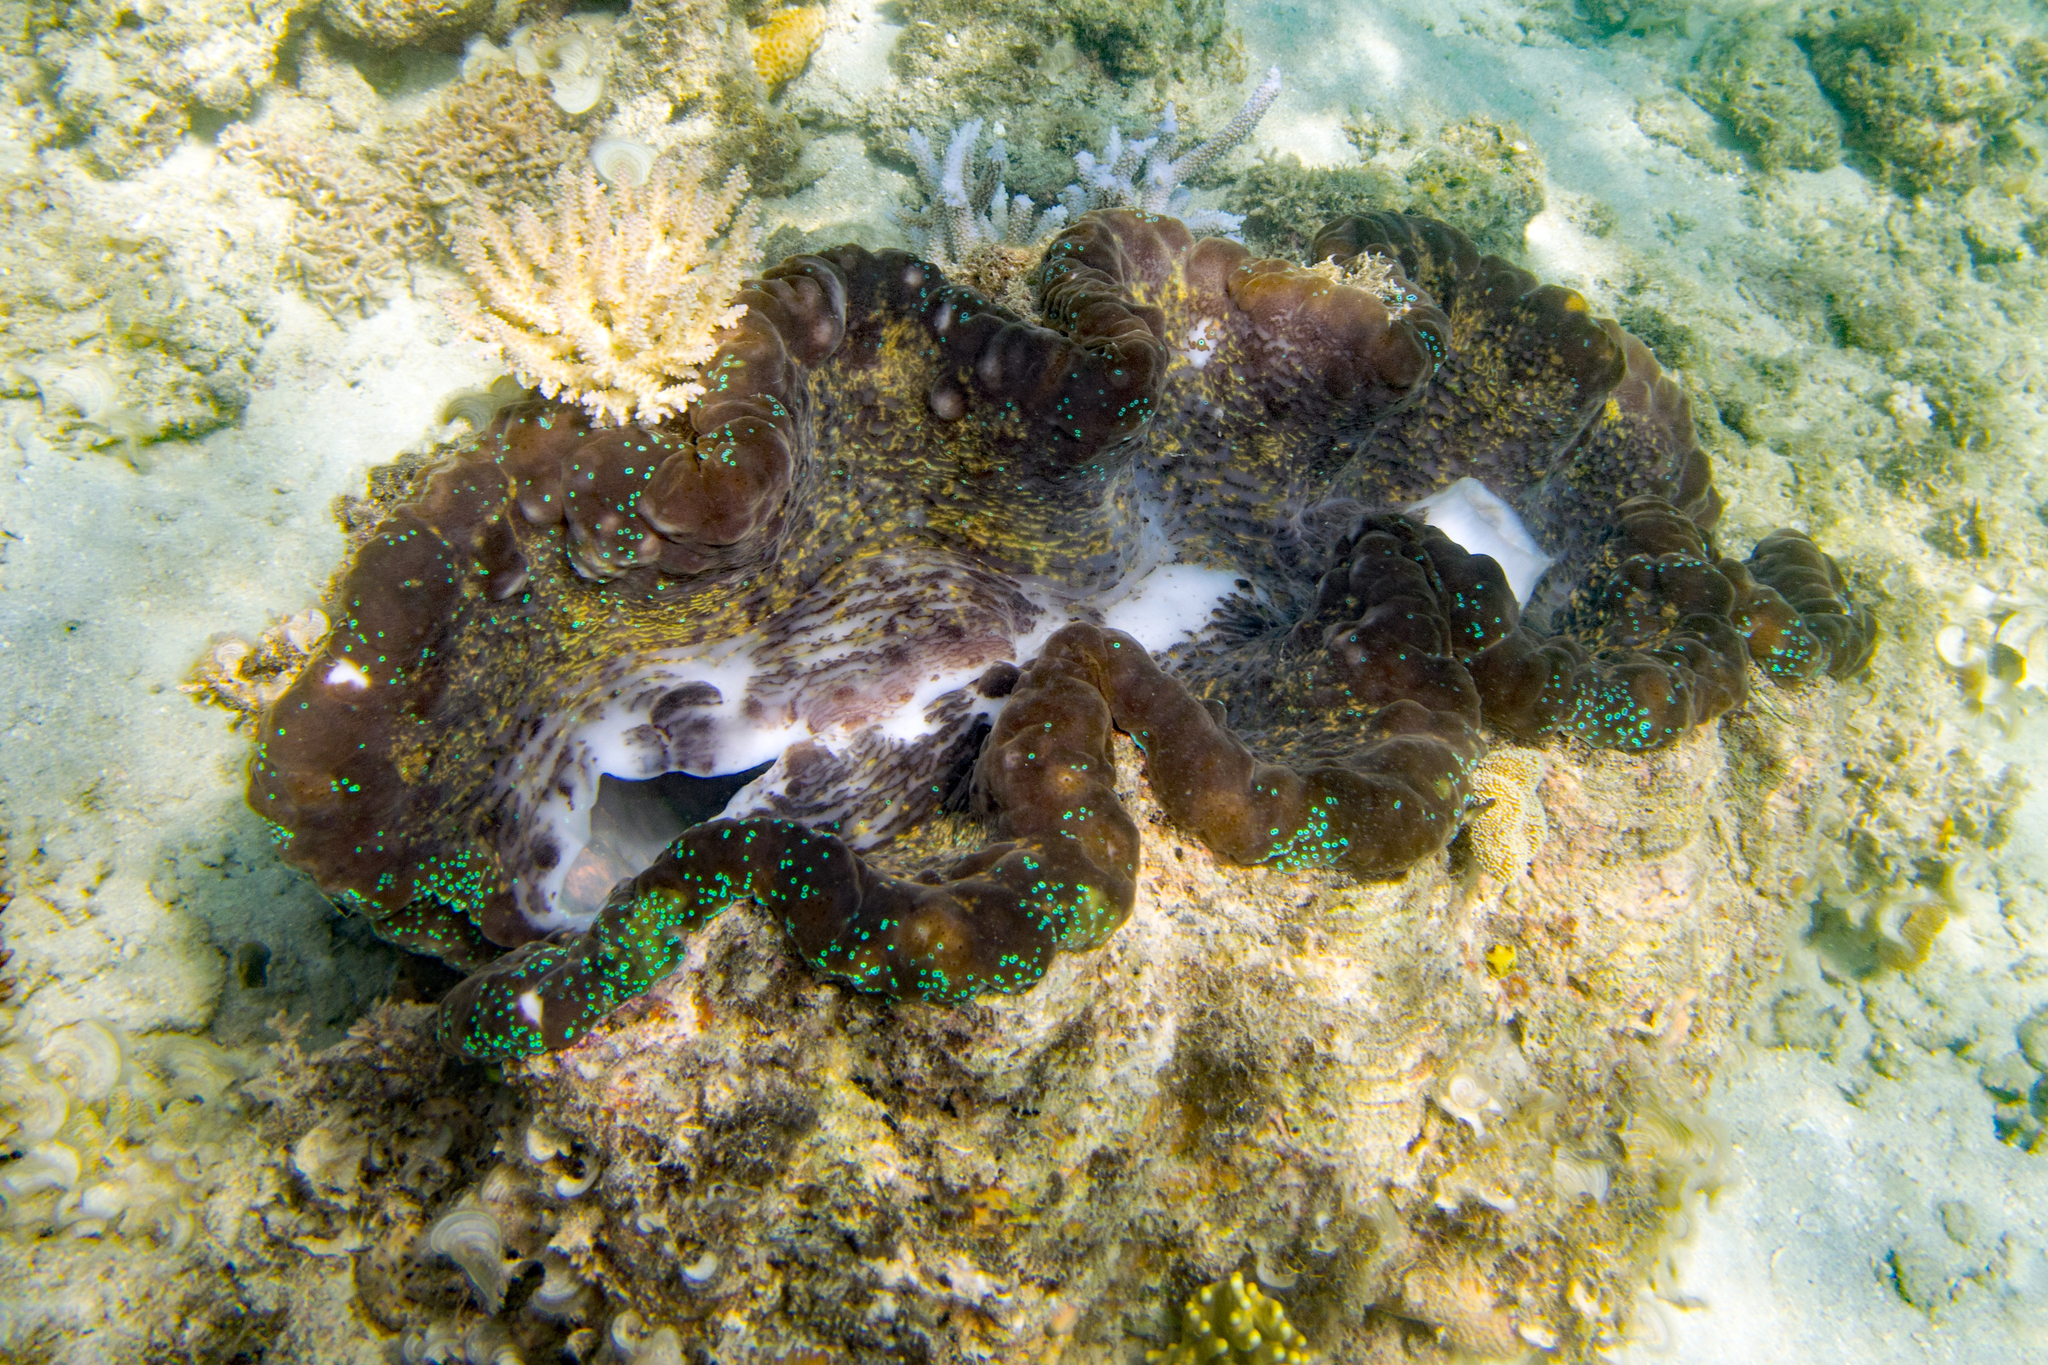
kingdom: Animalia
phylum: Mollusca
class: Bivalvia
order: Cardiida
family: Cardiidae
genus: Tridacna
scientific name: Tridacna gigas
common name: Giant clam
